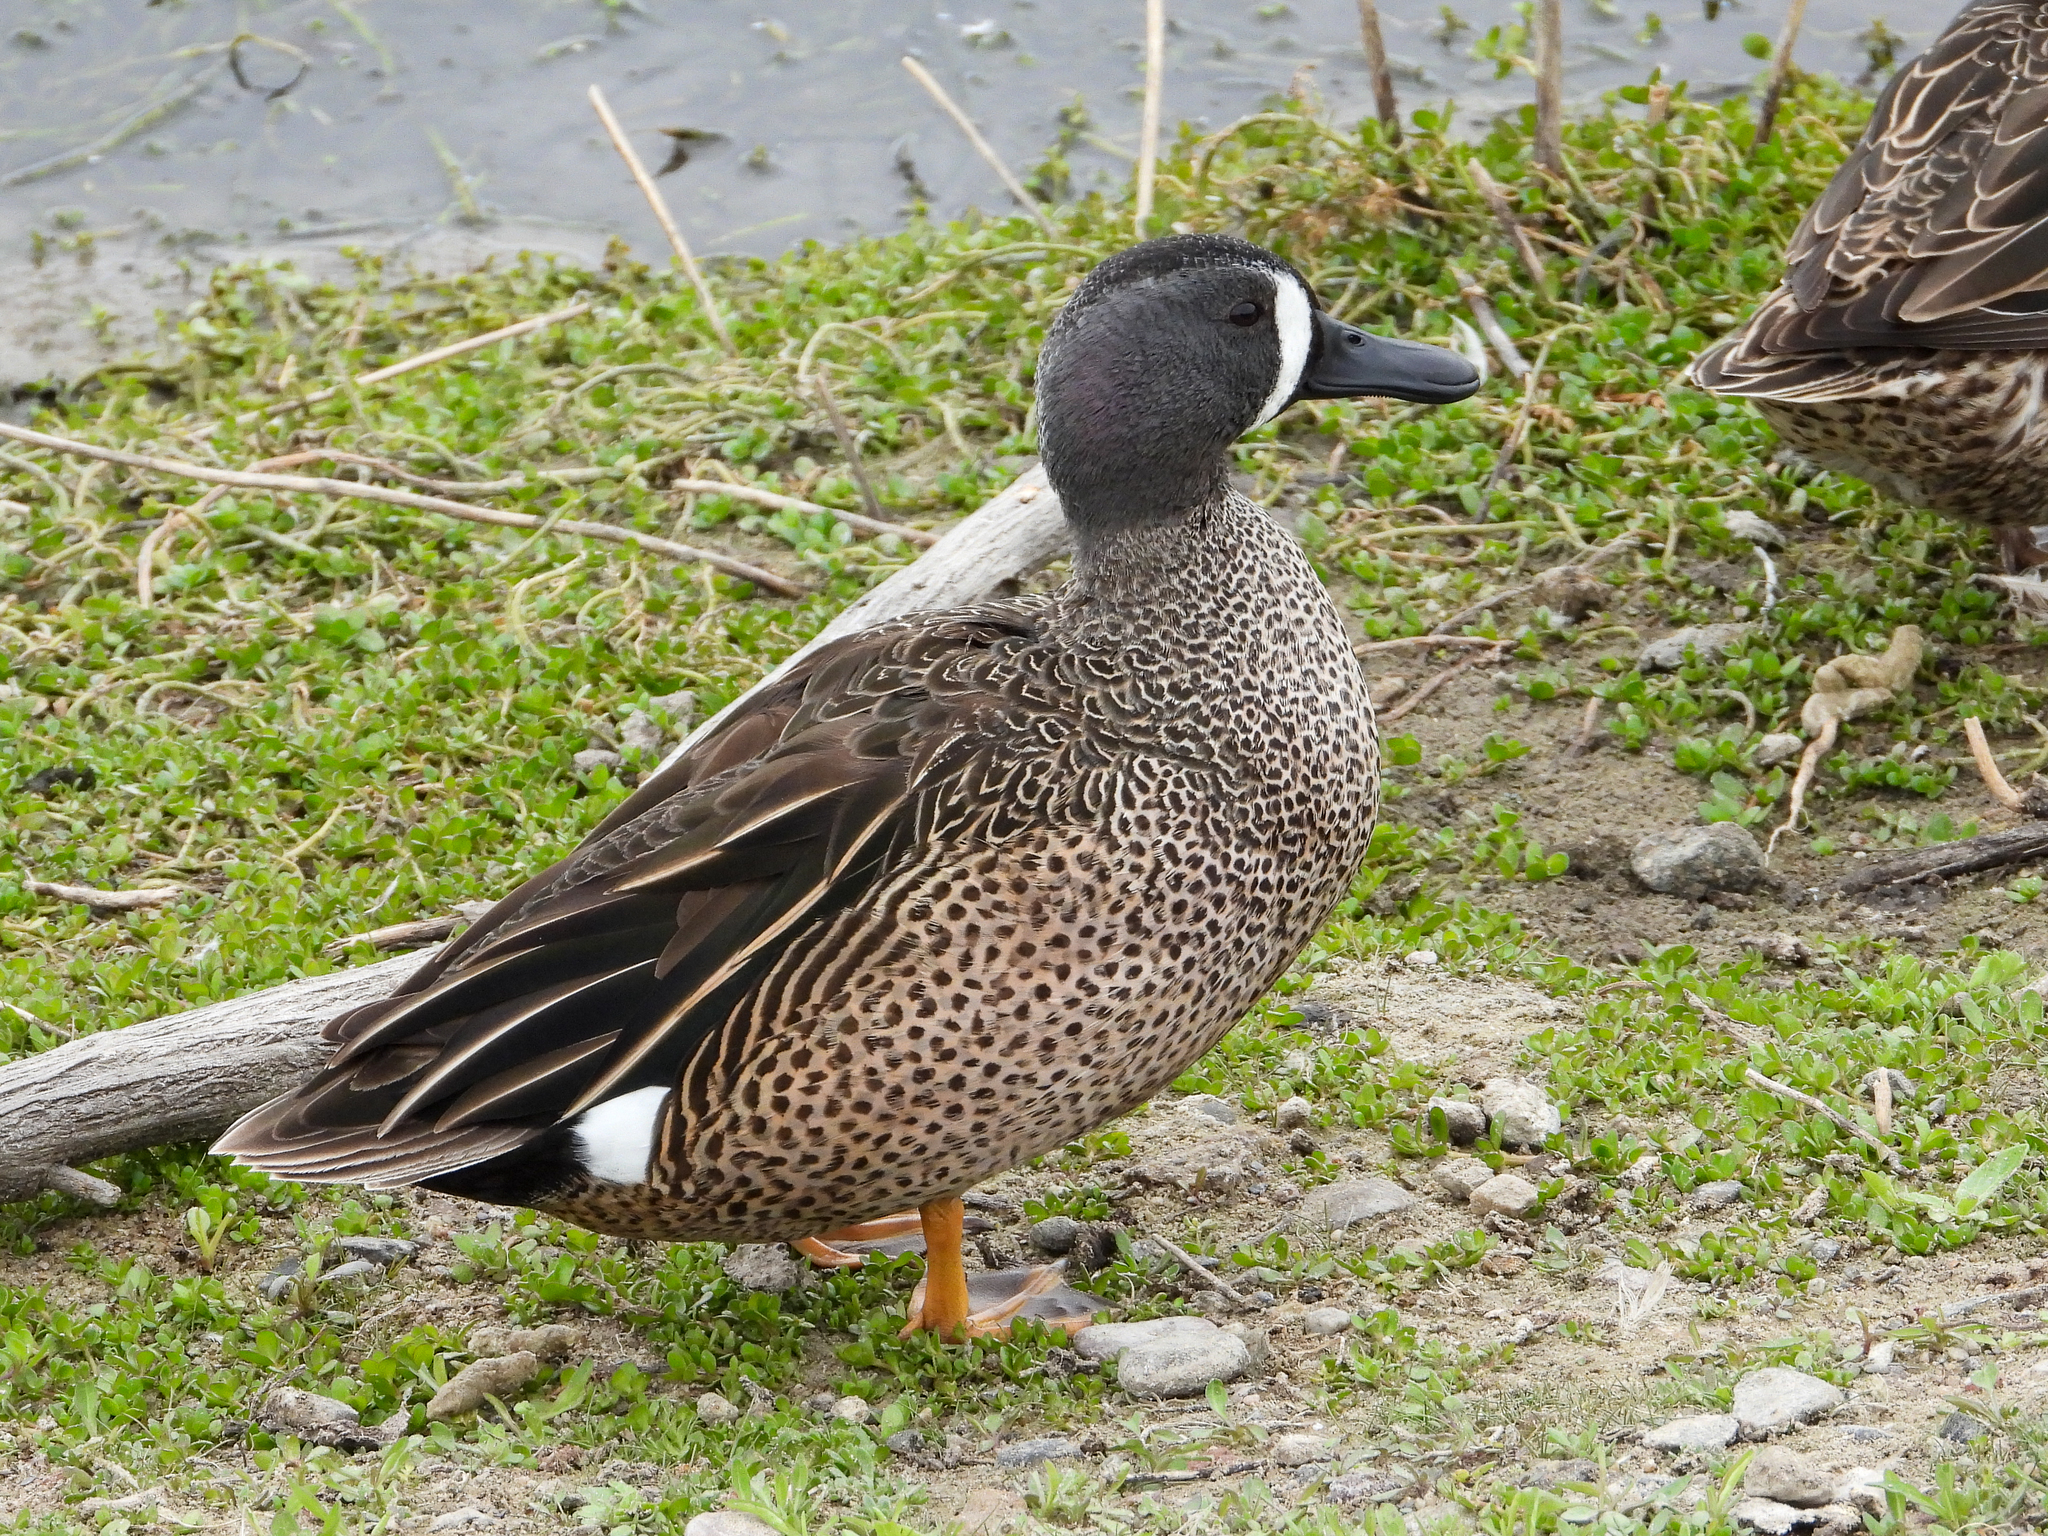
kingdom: Animalia
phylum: Chordata
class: Aves
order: Anseriformes
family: Anatidae
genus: Spatula
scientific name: Spatula discors
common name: Blue-winged teal
